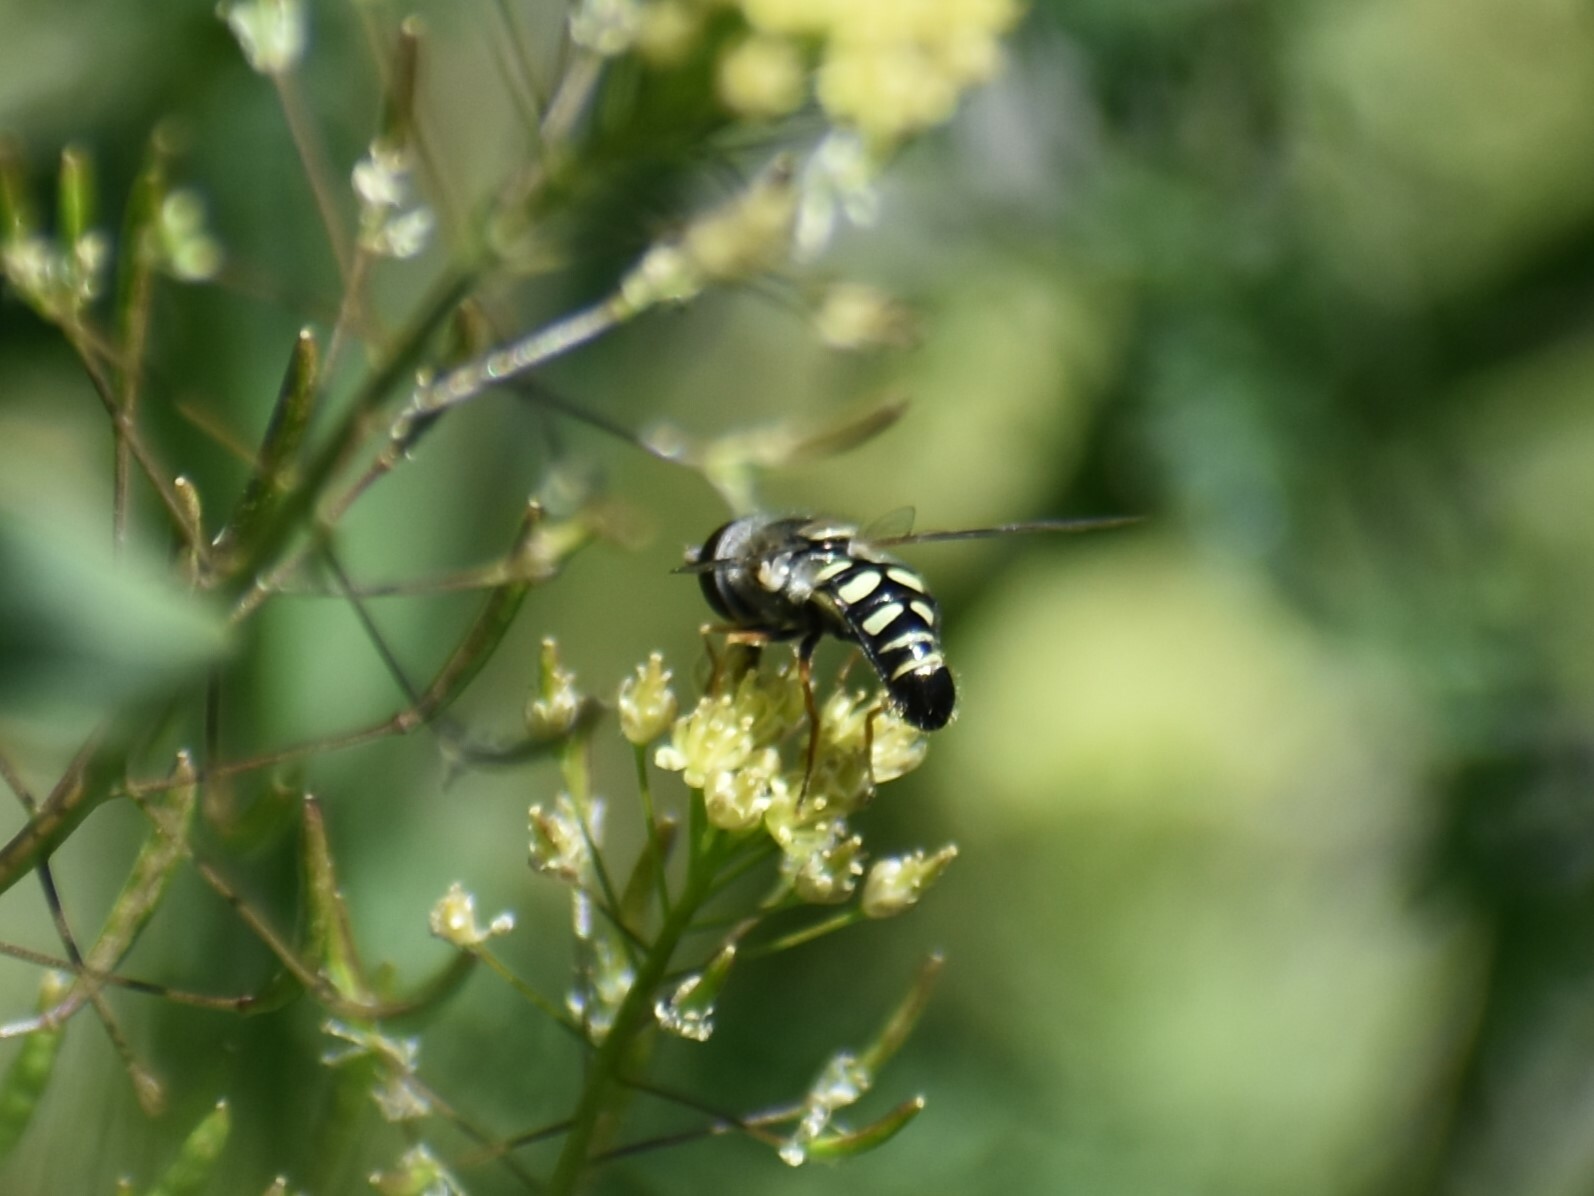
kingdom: Animalia
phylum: Arthropoda
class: Insecta
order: Diptera
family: Syrphidae
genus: Eupeodes
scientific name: Eupeodes volucris
